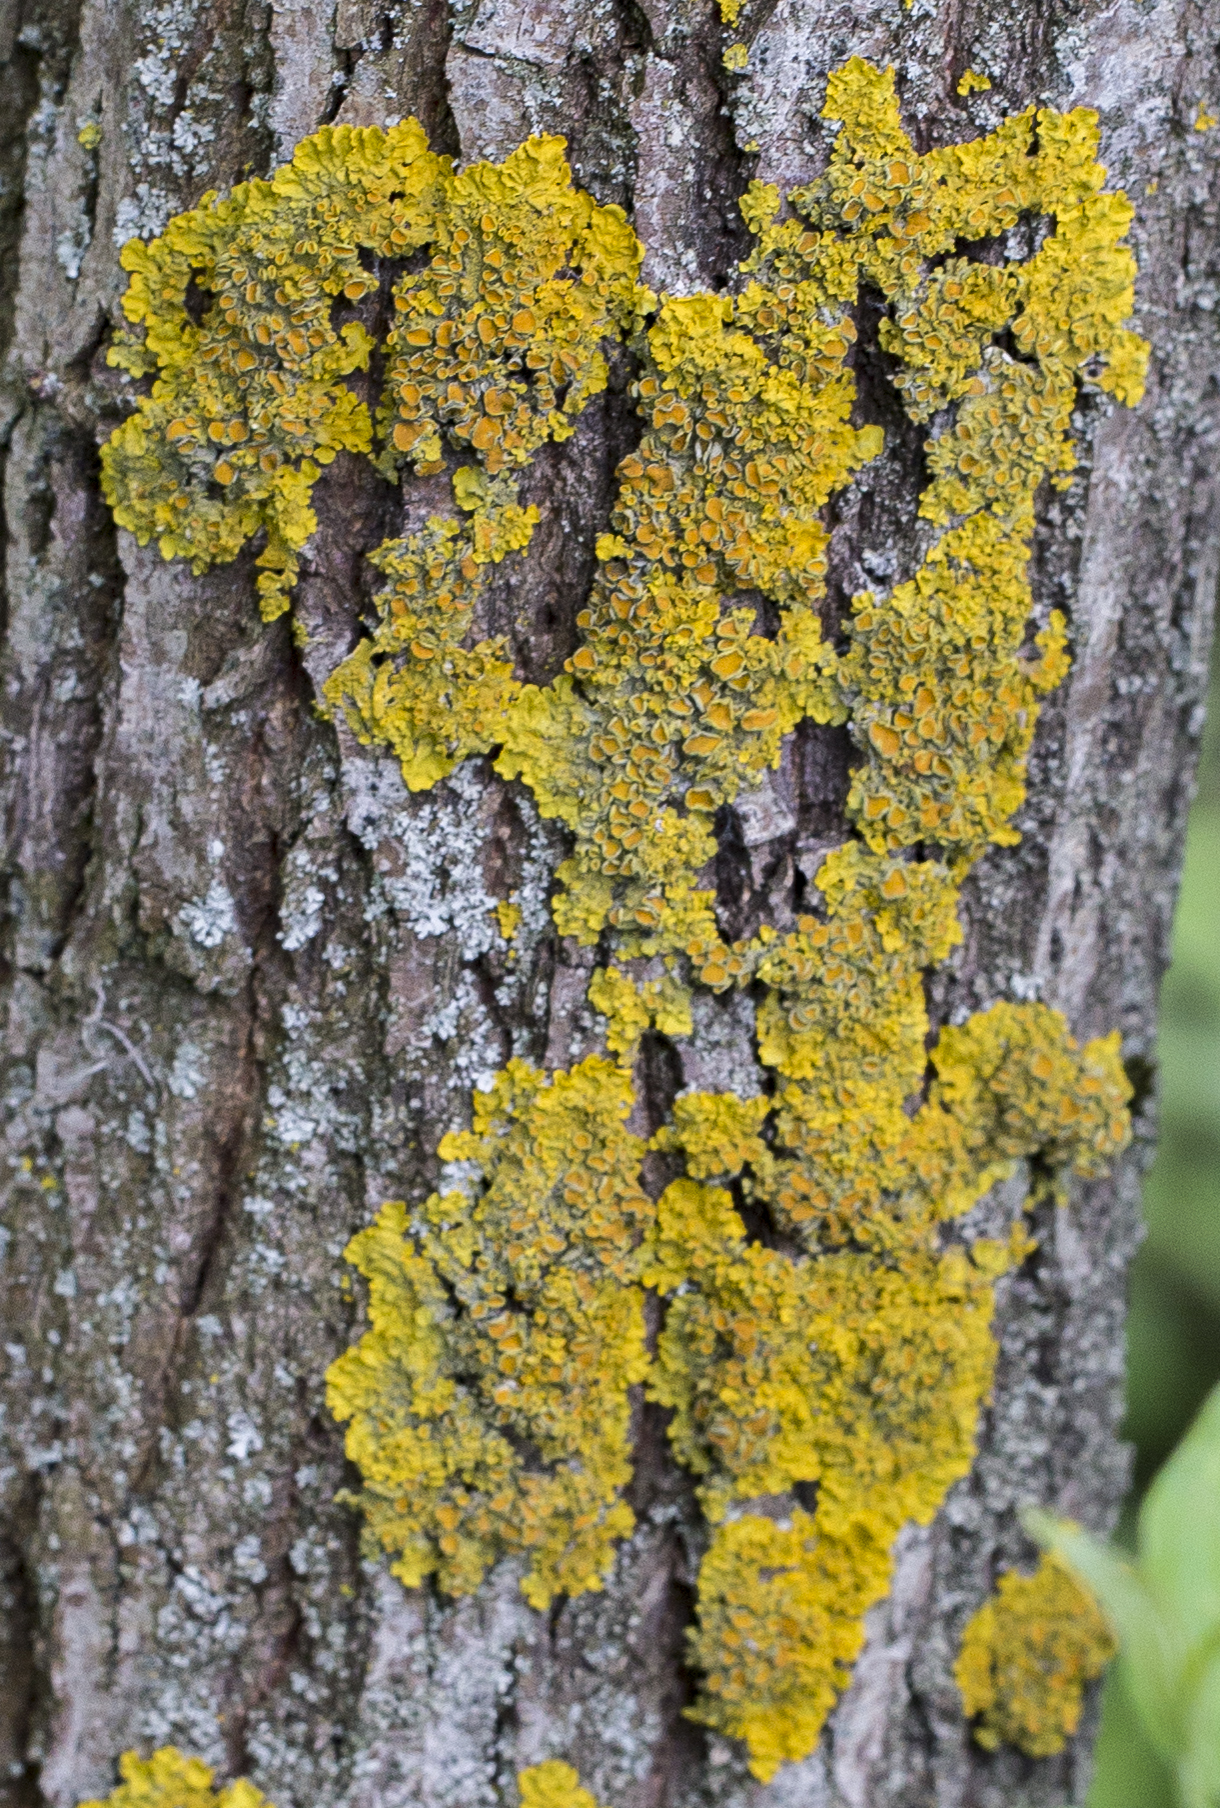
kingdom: Fungi
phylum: Ascomycota
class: Lecanoromycetes
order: Teloschistales
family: Teloschistaceae
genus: Xanthoria
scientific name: Xanthoria parietina
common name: Common orange lichen
